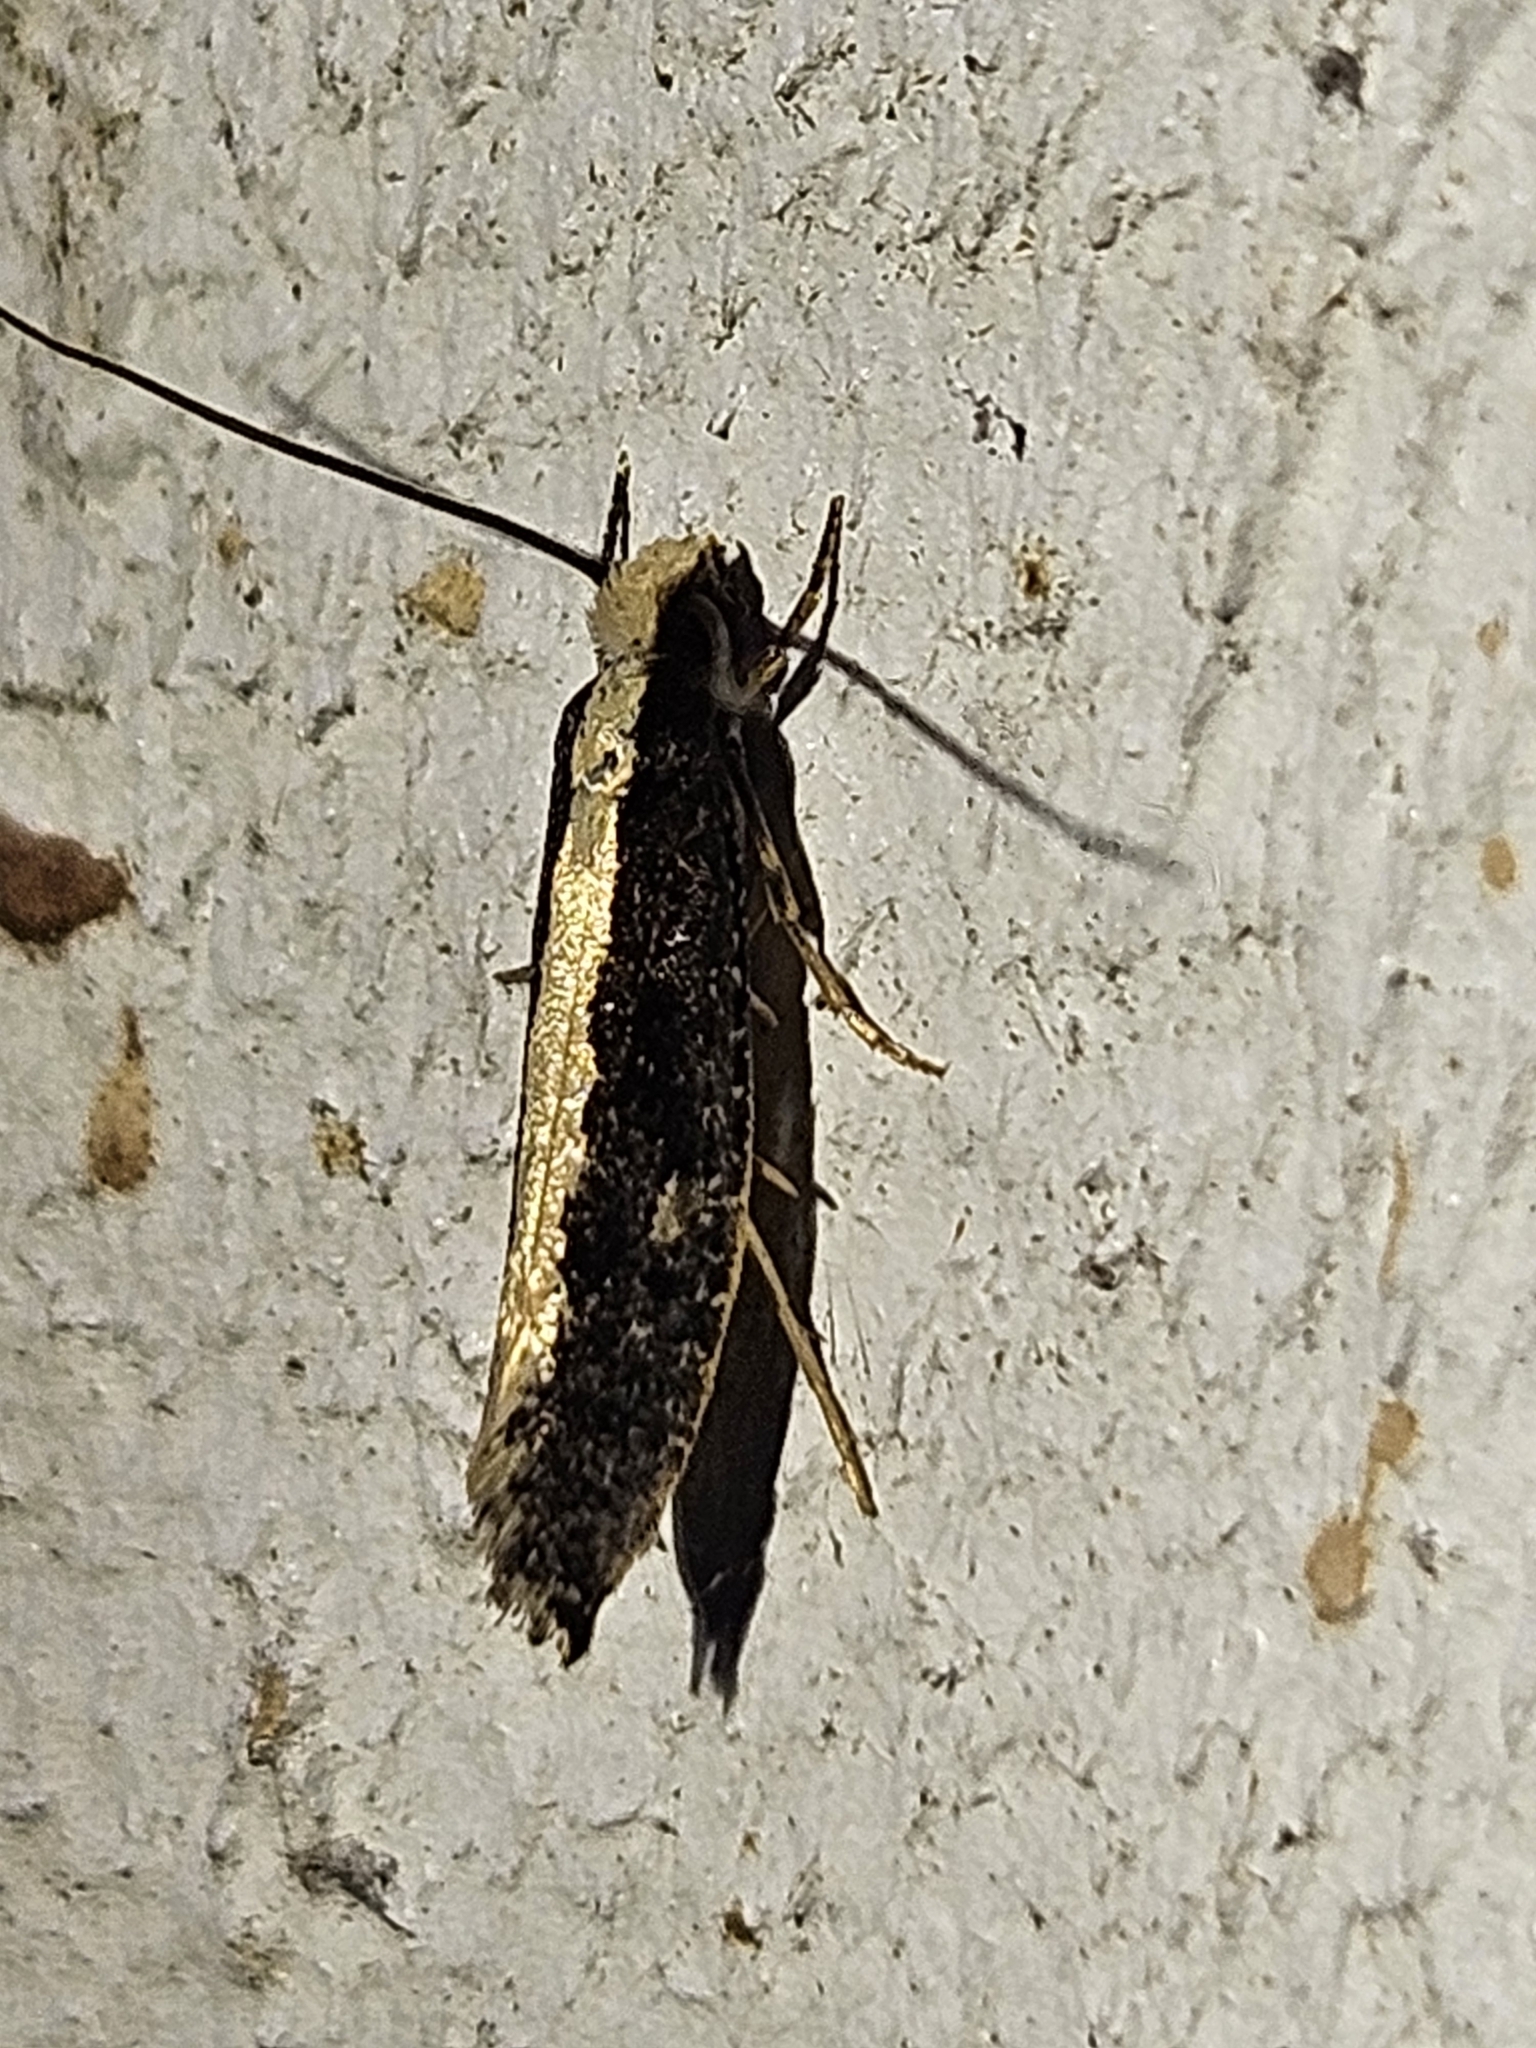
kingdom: Animalia
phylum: Arthropoda
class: Insecta
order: Lepidoptera
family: Tineidae
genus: Monopis
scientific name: Monopis ethelella
